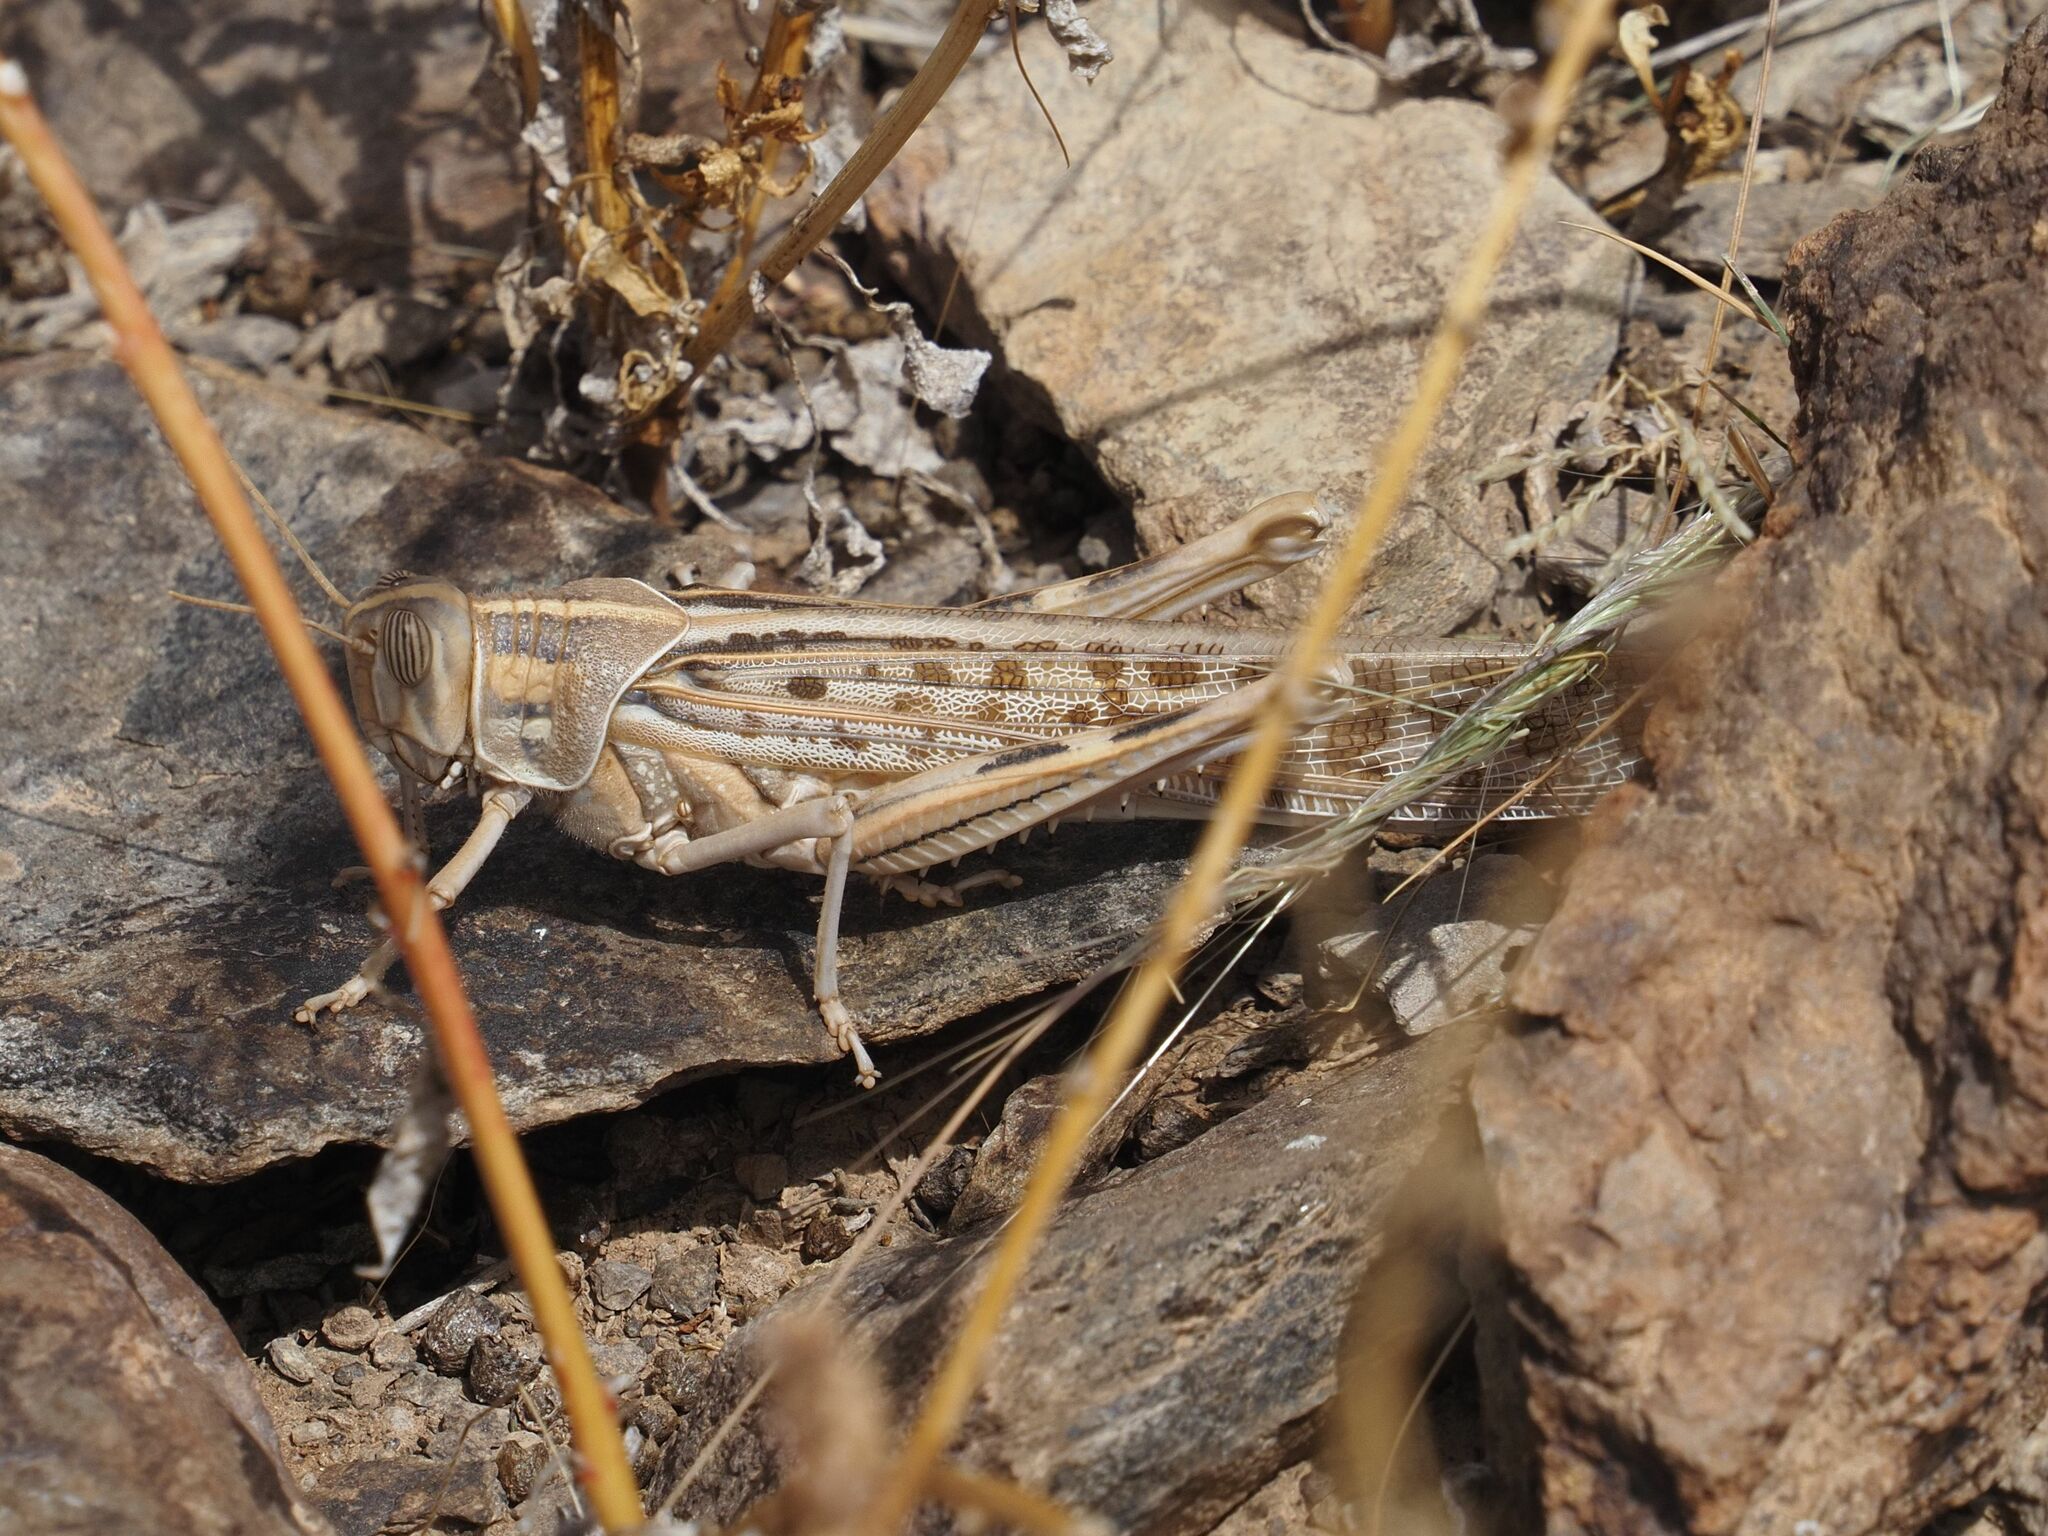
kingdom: Animalia
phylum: Arthropoda
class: Insecta
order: Orthoptera
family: Acrididae
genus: Schistocerca
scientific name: Schistocerca gregaria
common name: Desert locust
